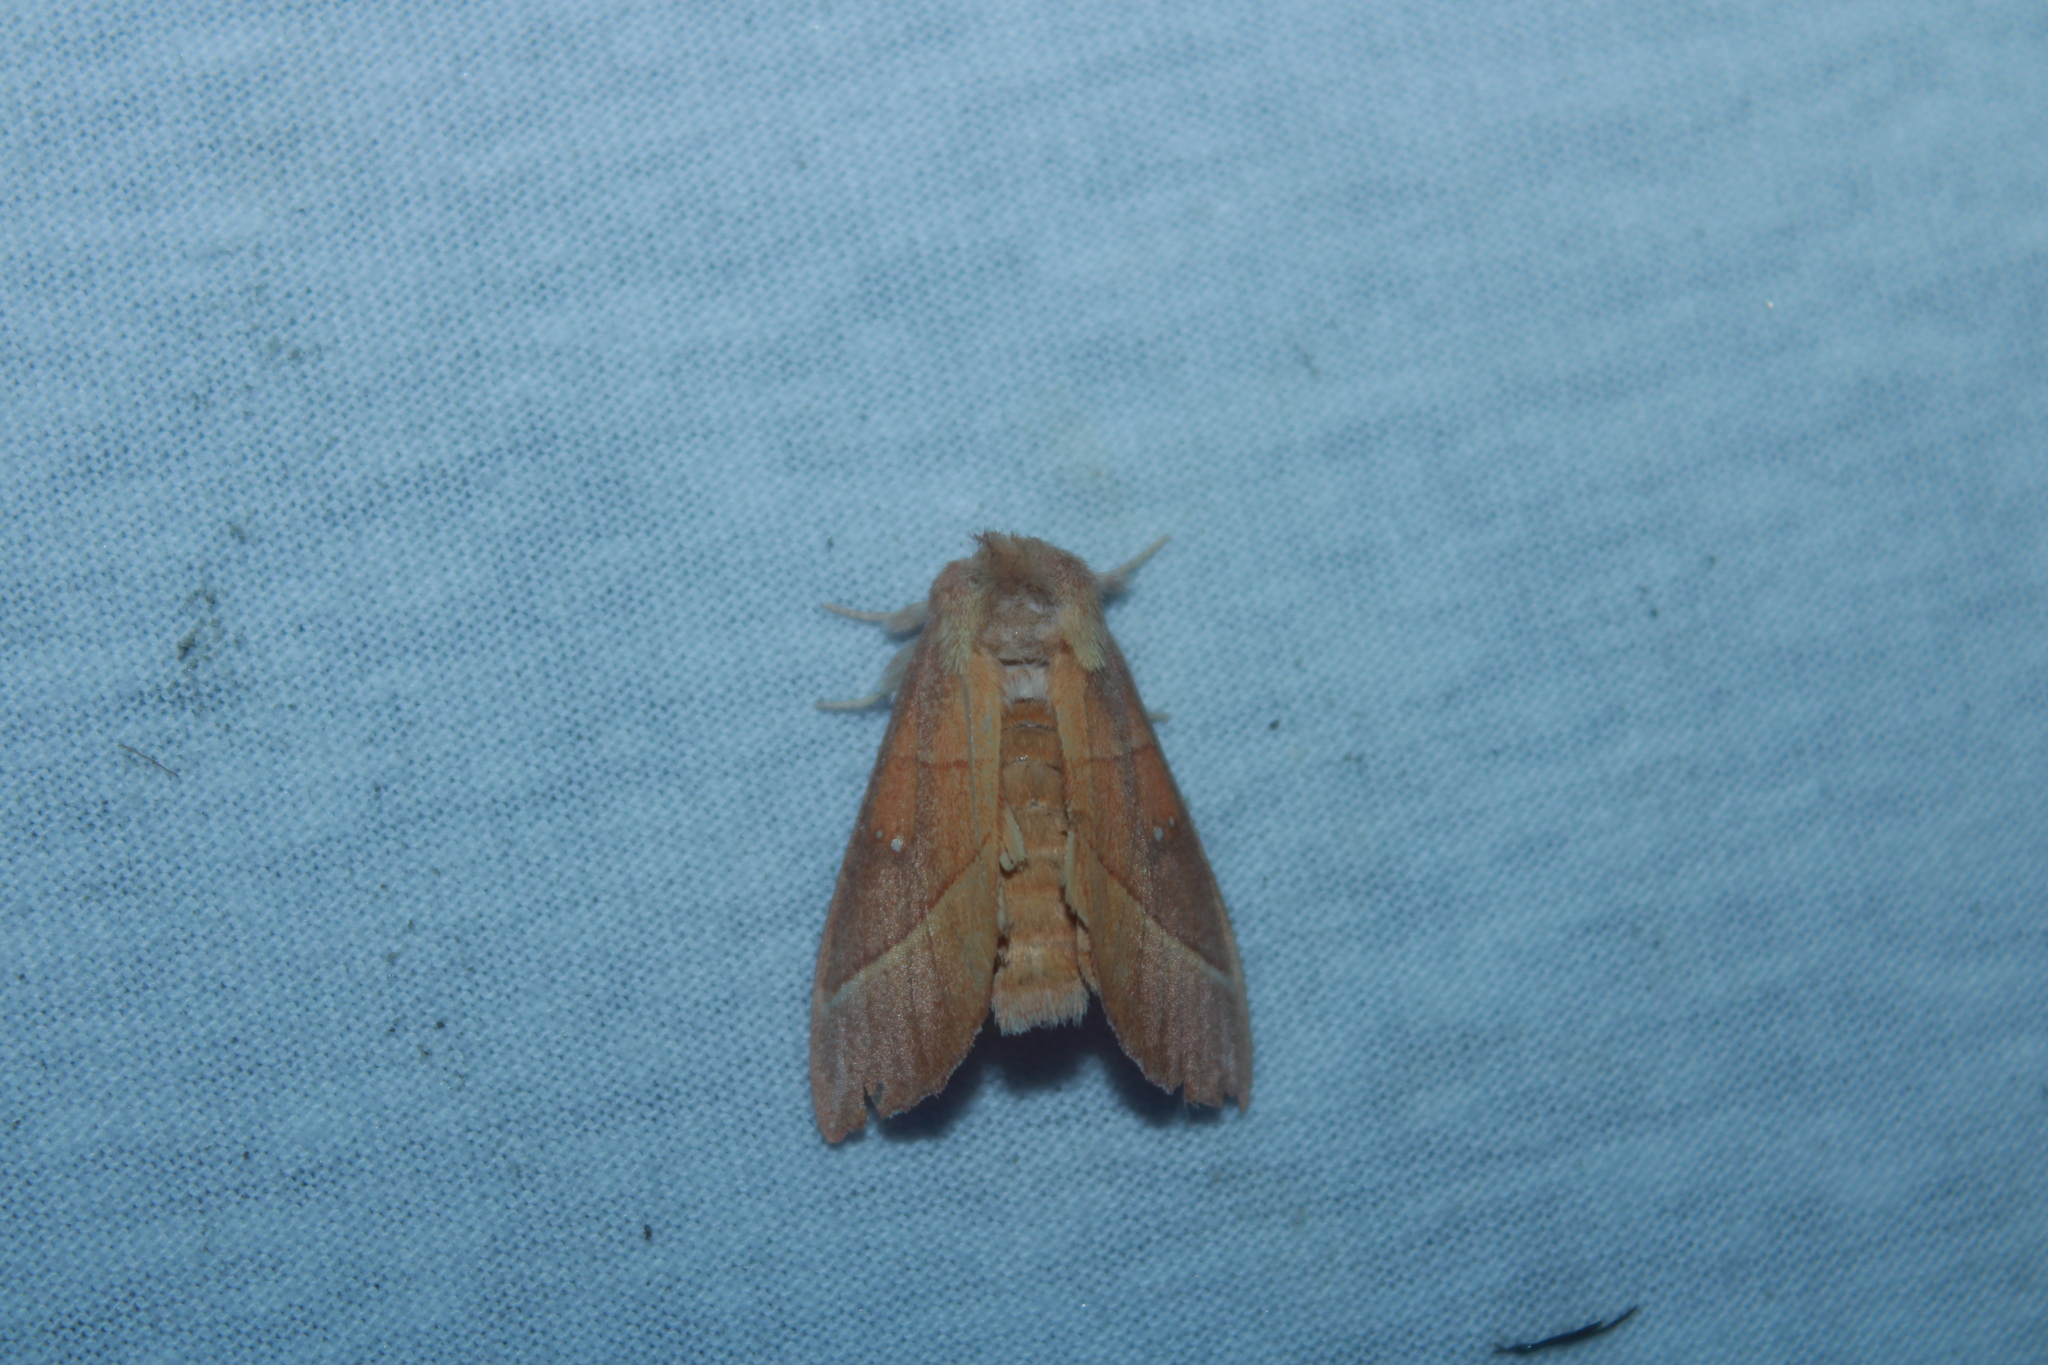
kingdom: Animalia
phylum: Arthropoda
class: Insecta
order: Lepidoptera
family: Notodontidae
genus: Nadata
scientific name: Nadata gibbosa
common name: White-dotted prominent
